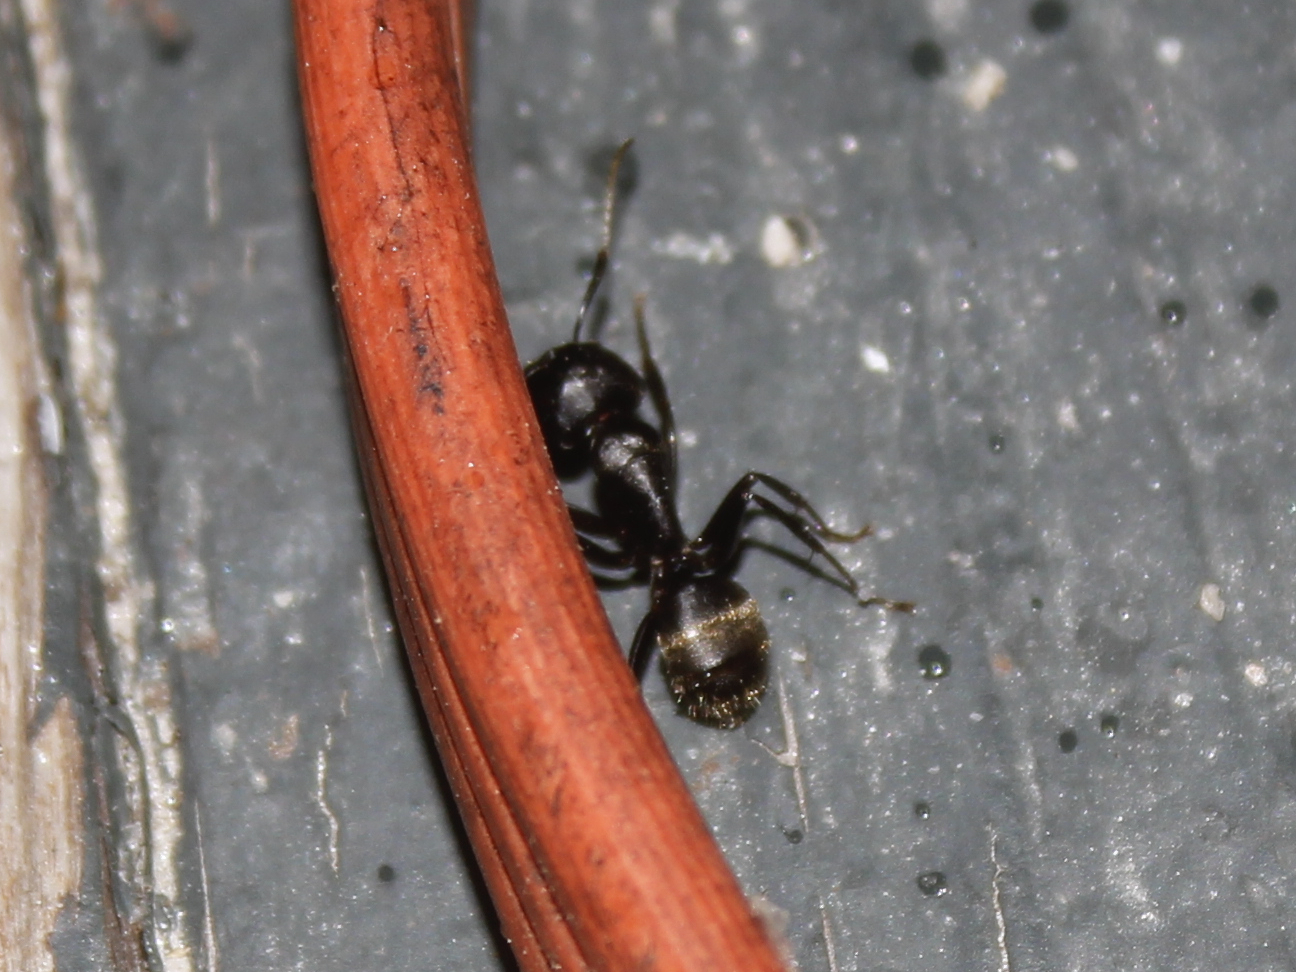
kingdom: Animalia
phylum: Arthropoda
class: Insecta
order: Hymenoptera
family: Formicidae
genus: Camponotus
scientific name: Camponotus pennsylvanicus
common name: Black carpenter ant
